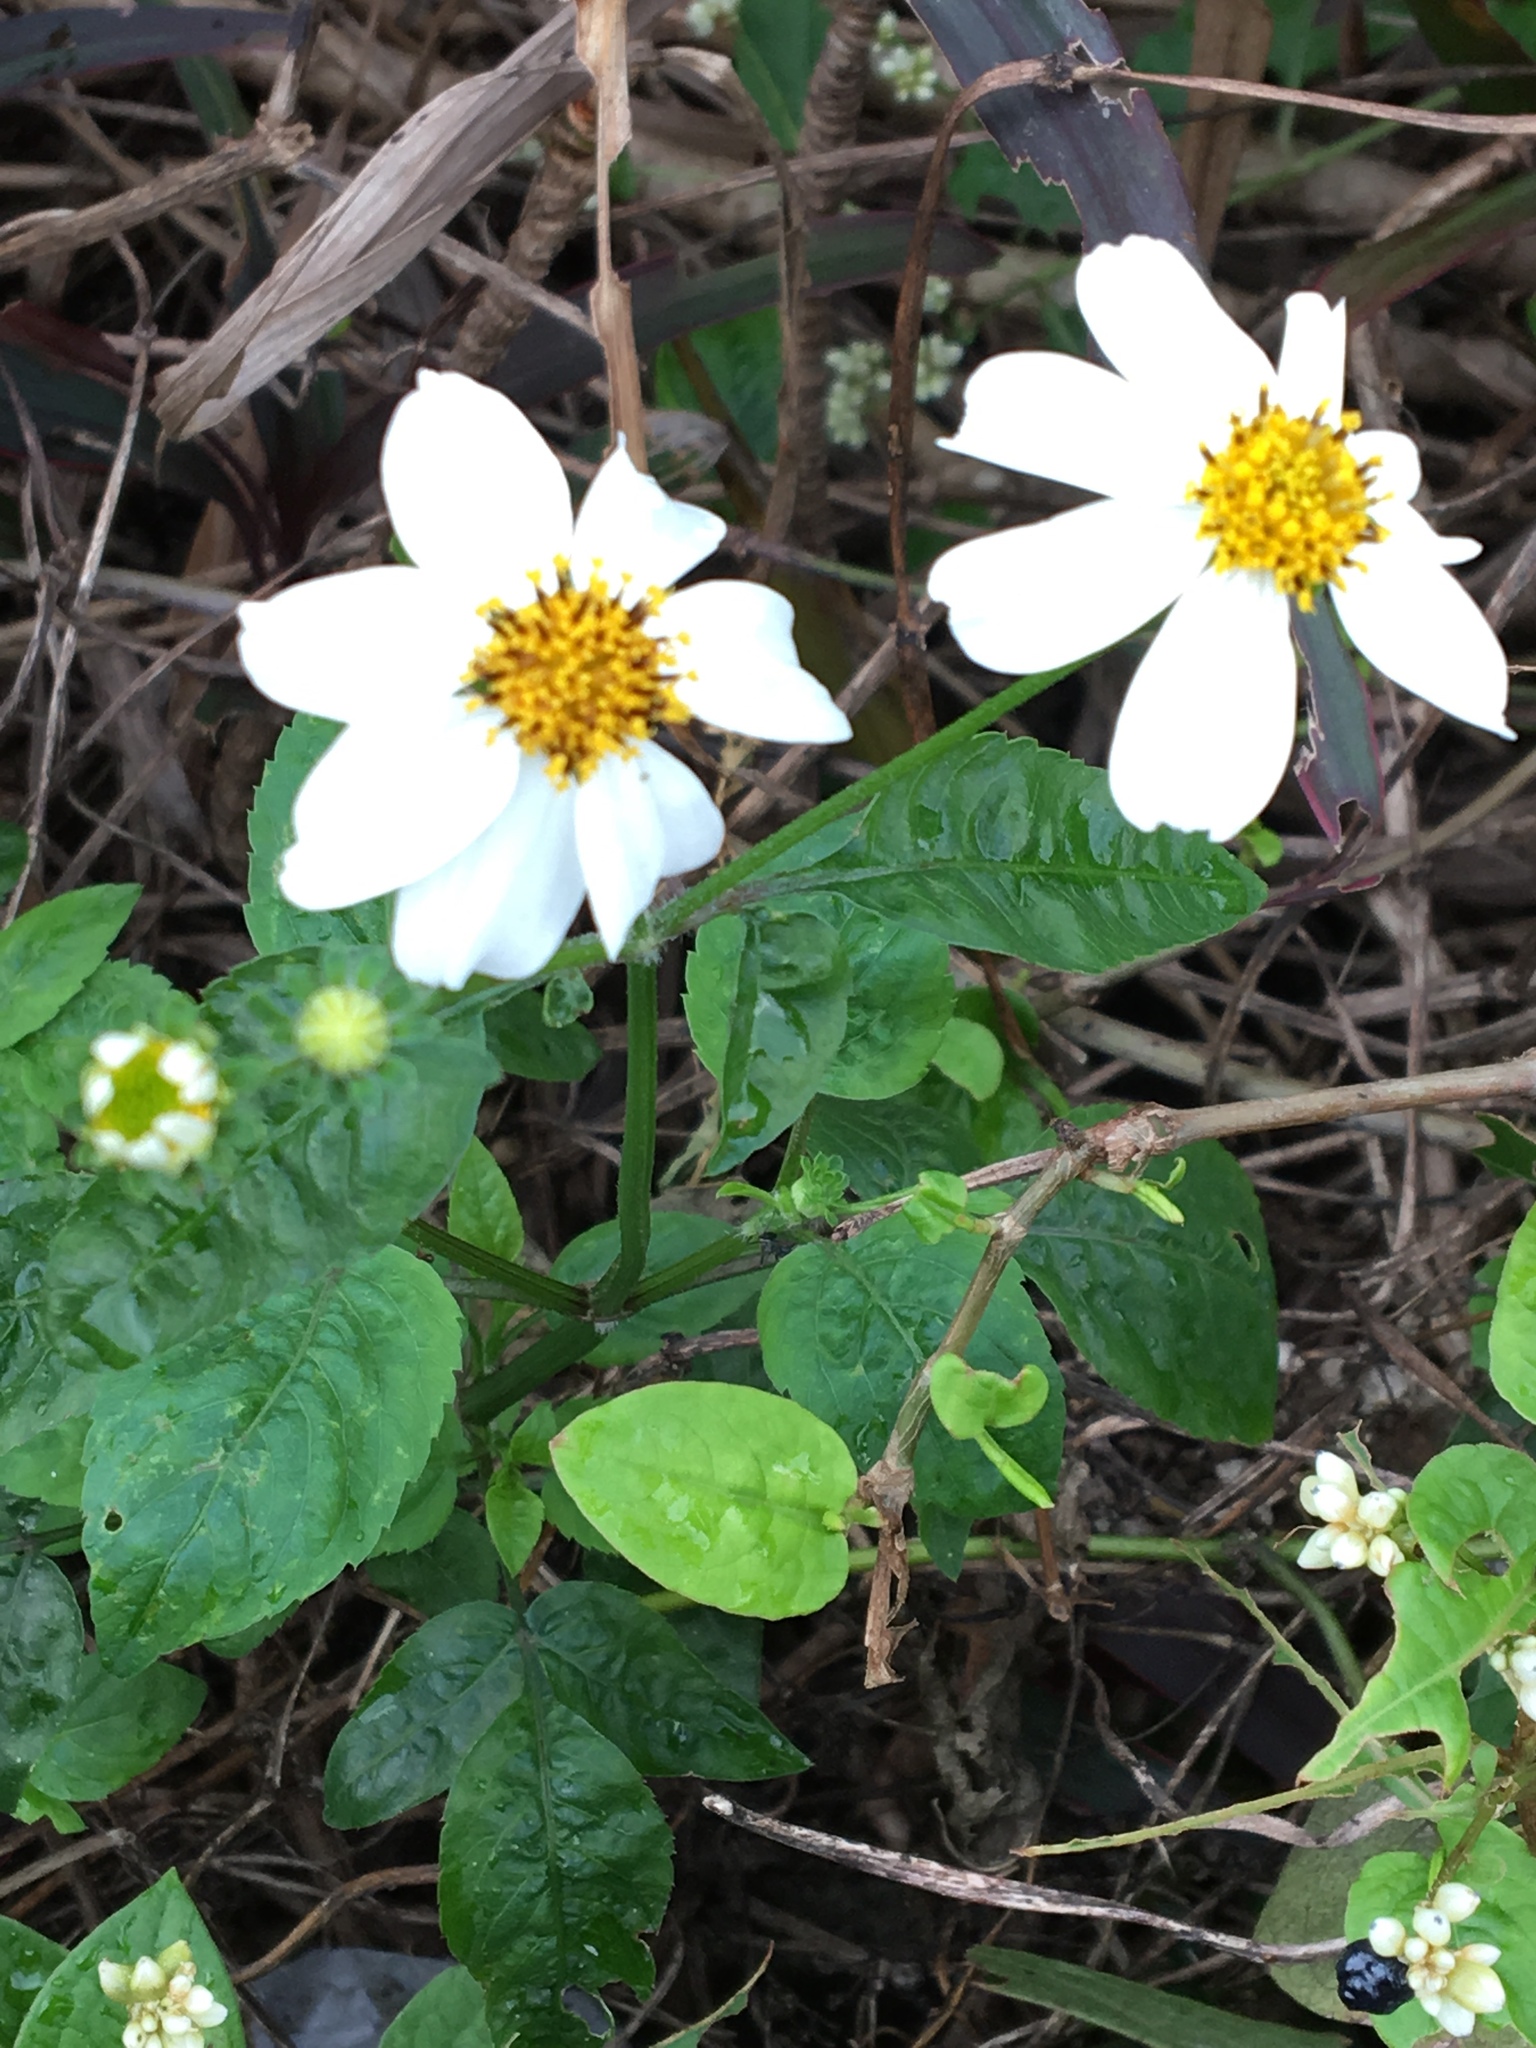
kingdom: Plantae
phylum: Tracheophyta
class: Magnoliopsida
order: Asterales
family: Asteraceae
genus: Bidens
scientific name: Bidens alba
